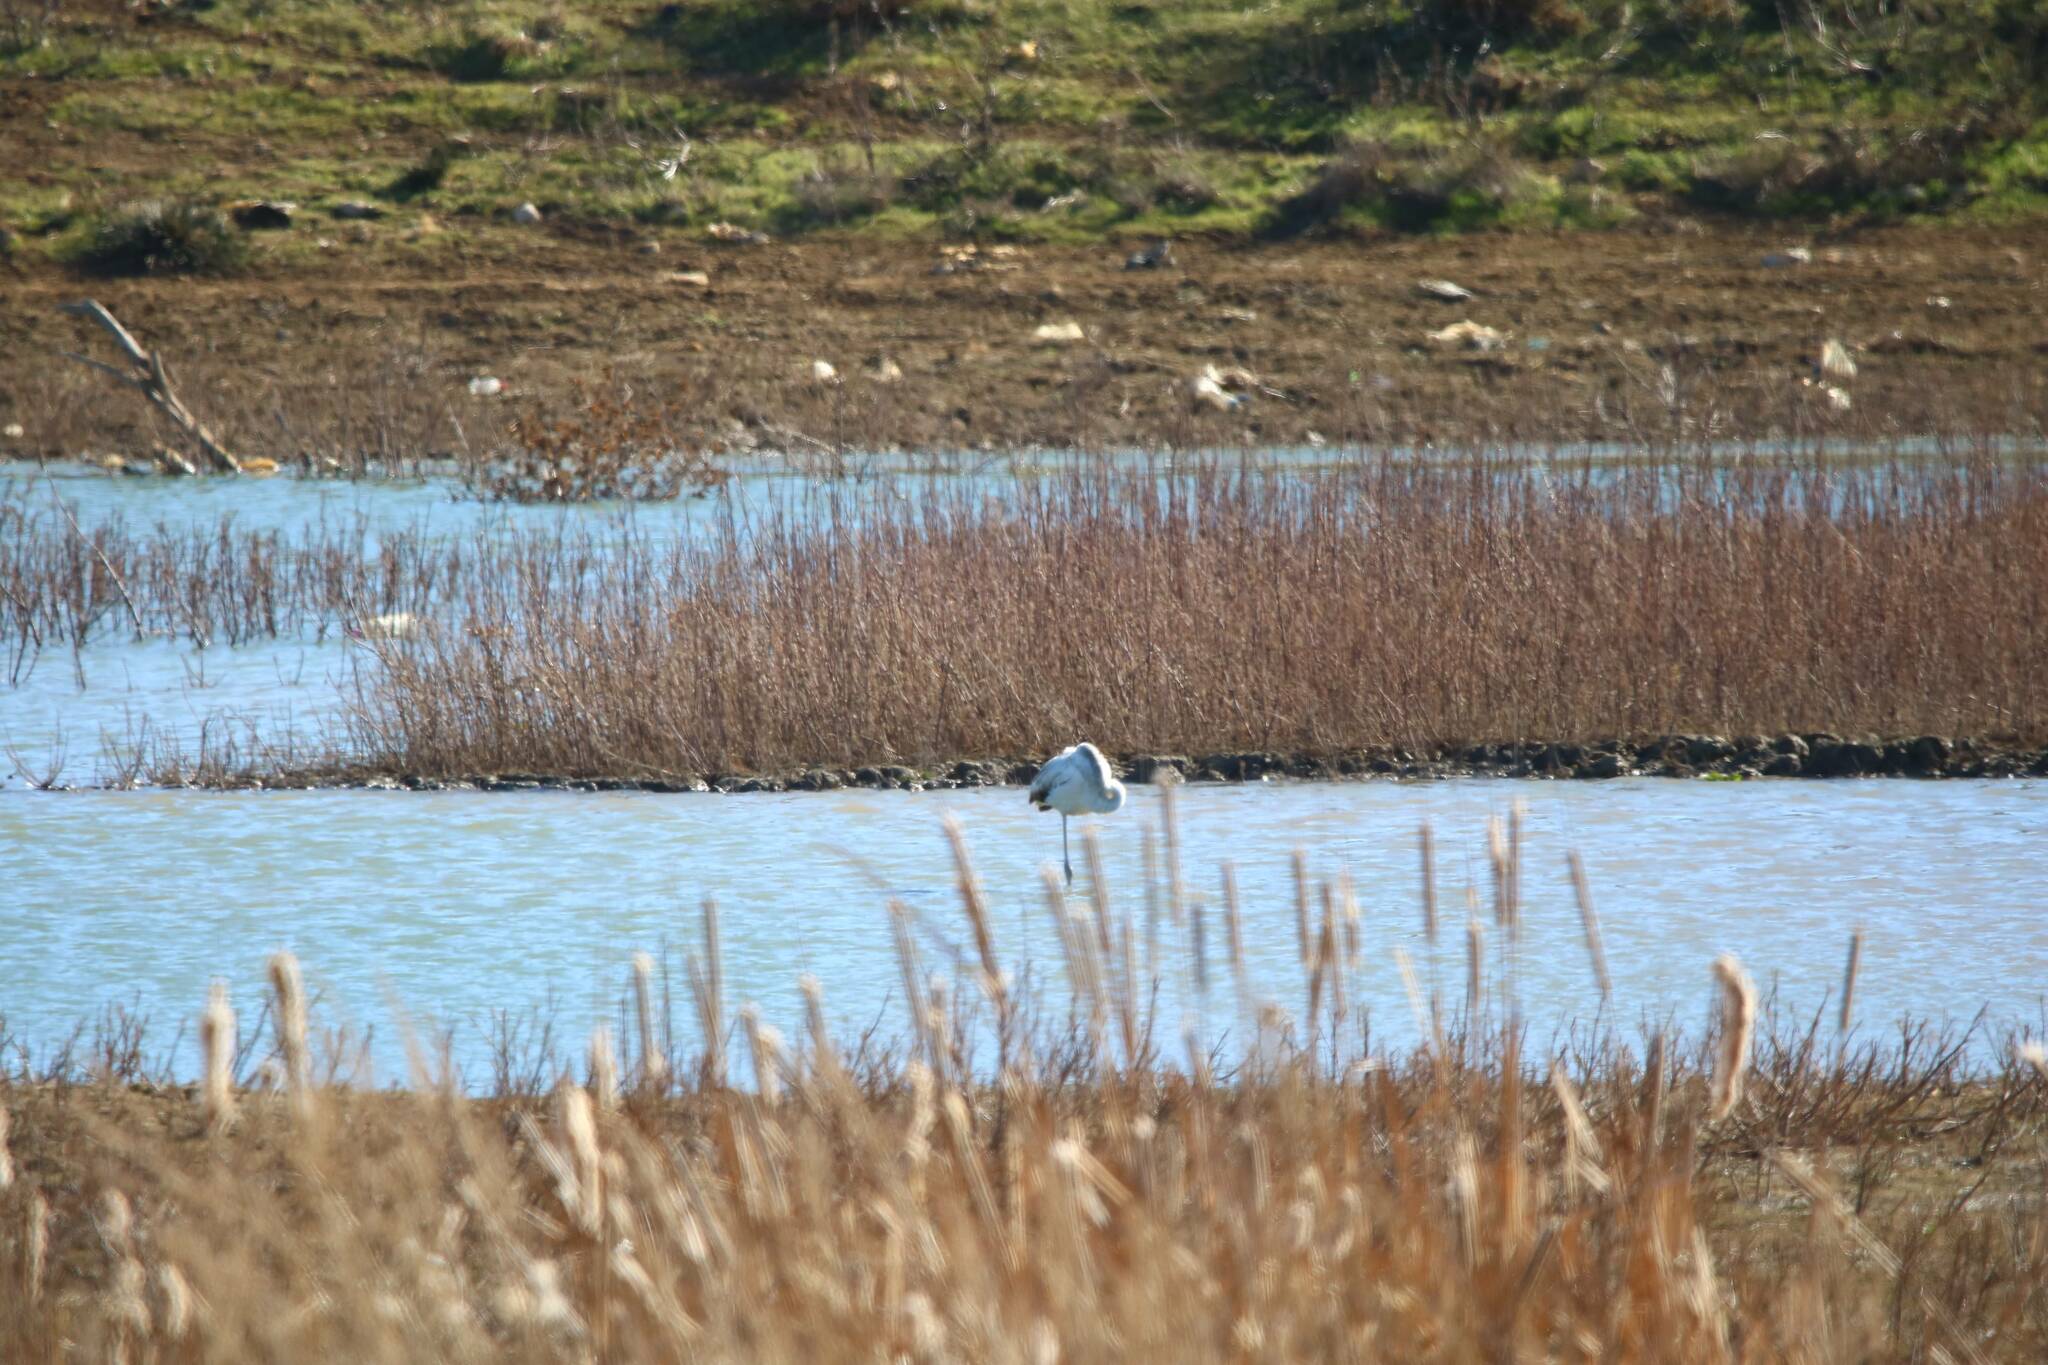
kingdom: Animalia
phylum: Chordata
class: Aves
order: Phoenicopteriformes
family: Phoenicopteridae
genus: Phoenicopterus
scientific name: Phoenicopterus roseus
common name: Greater flamingo
